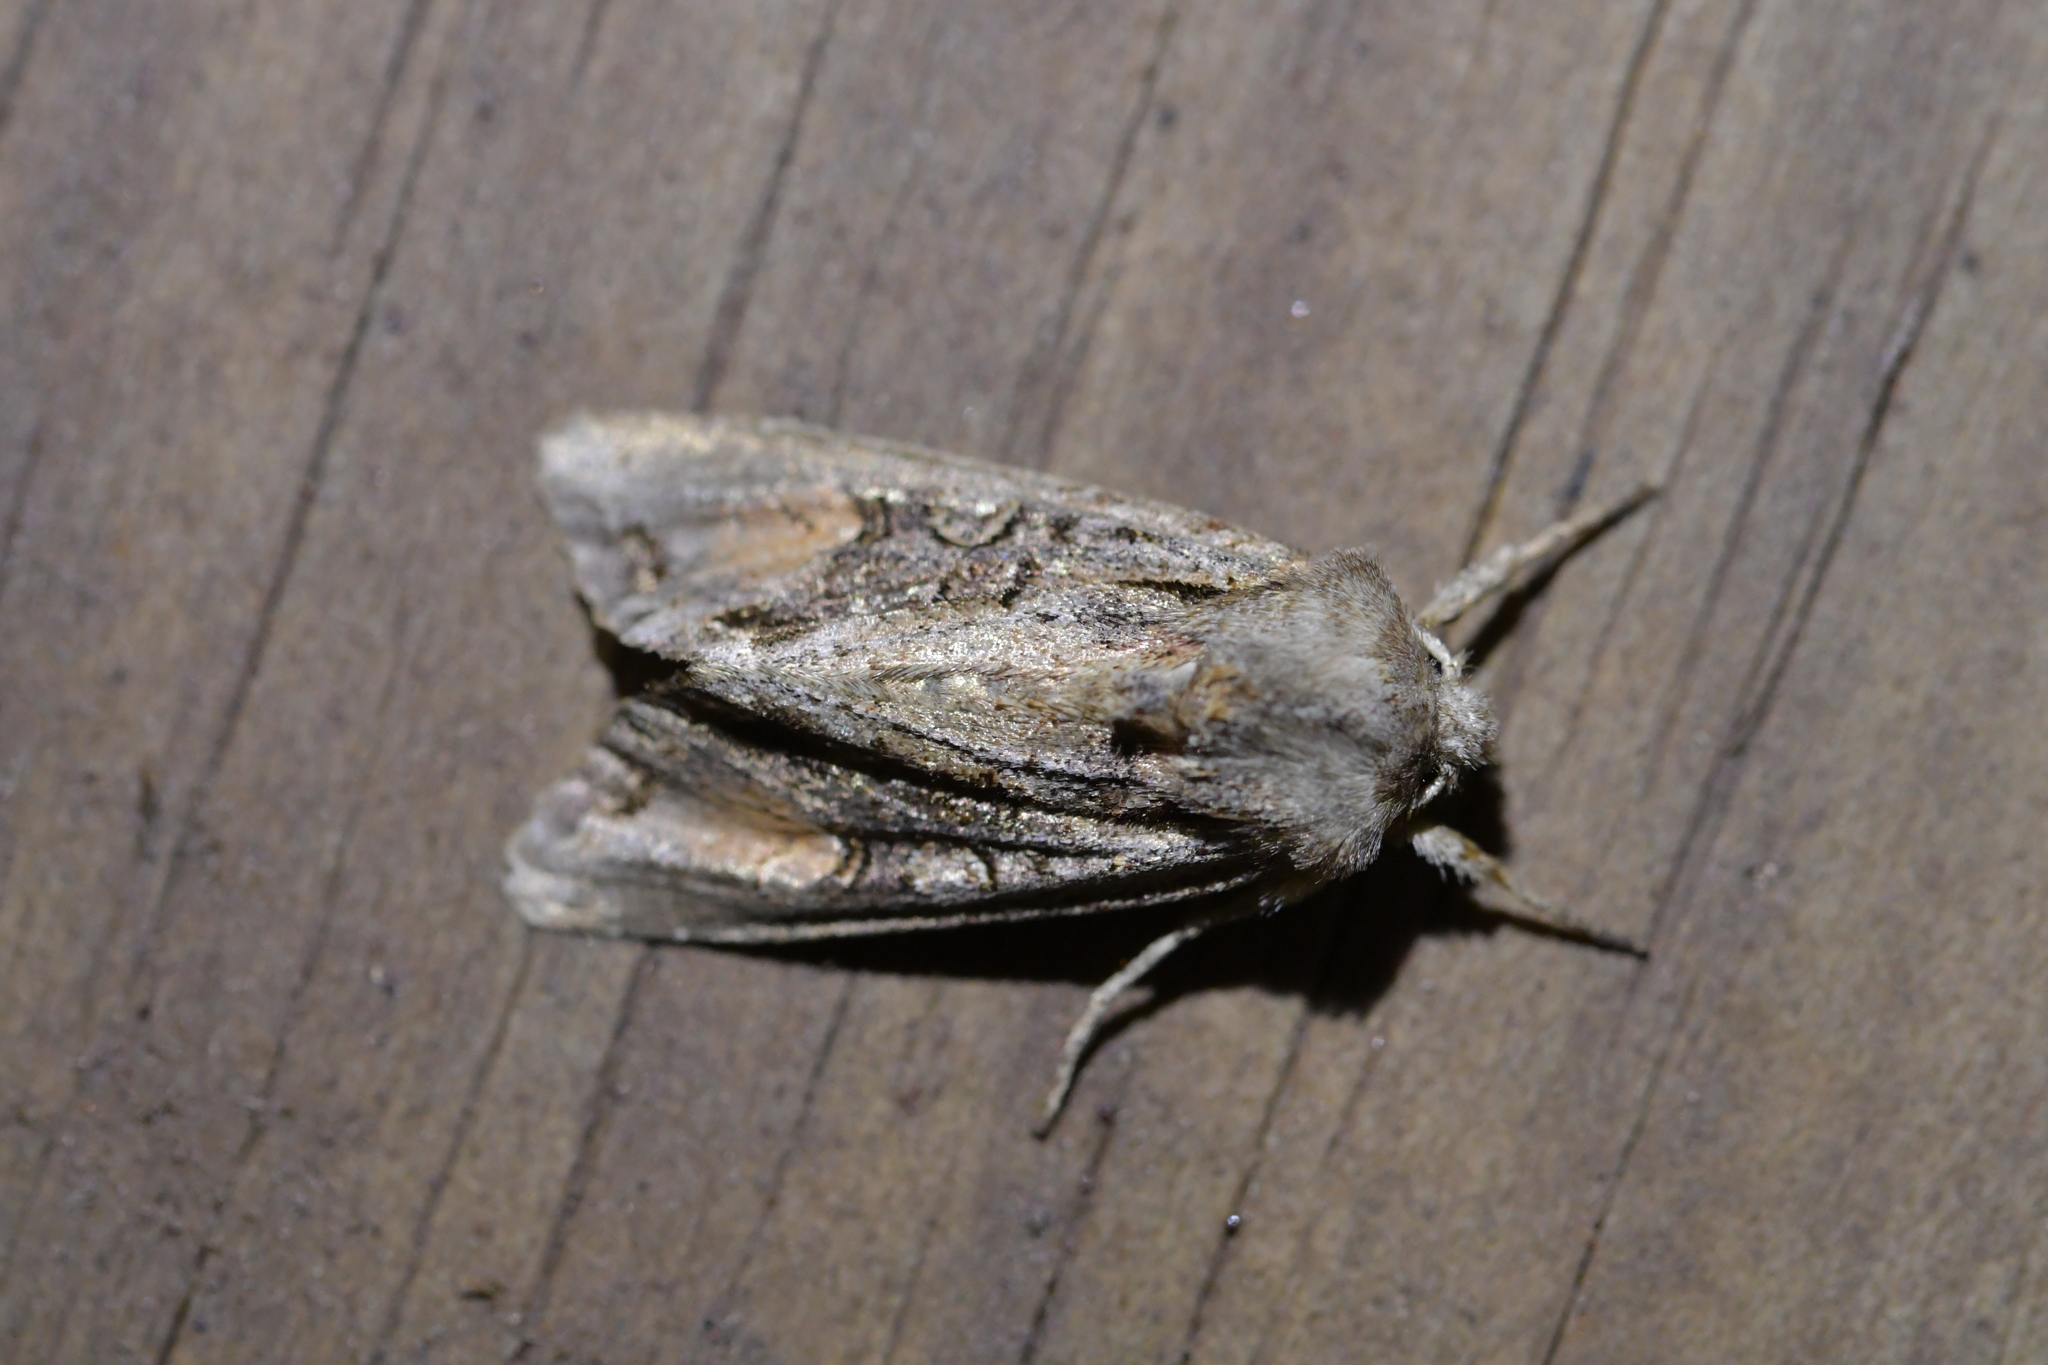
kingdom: Animalia
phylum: Arthropoda
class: Insecta
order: Lepidoptera
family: Noctuidae
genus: Ichneutica
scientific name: Ichneutica
